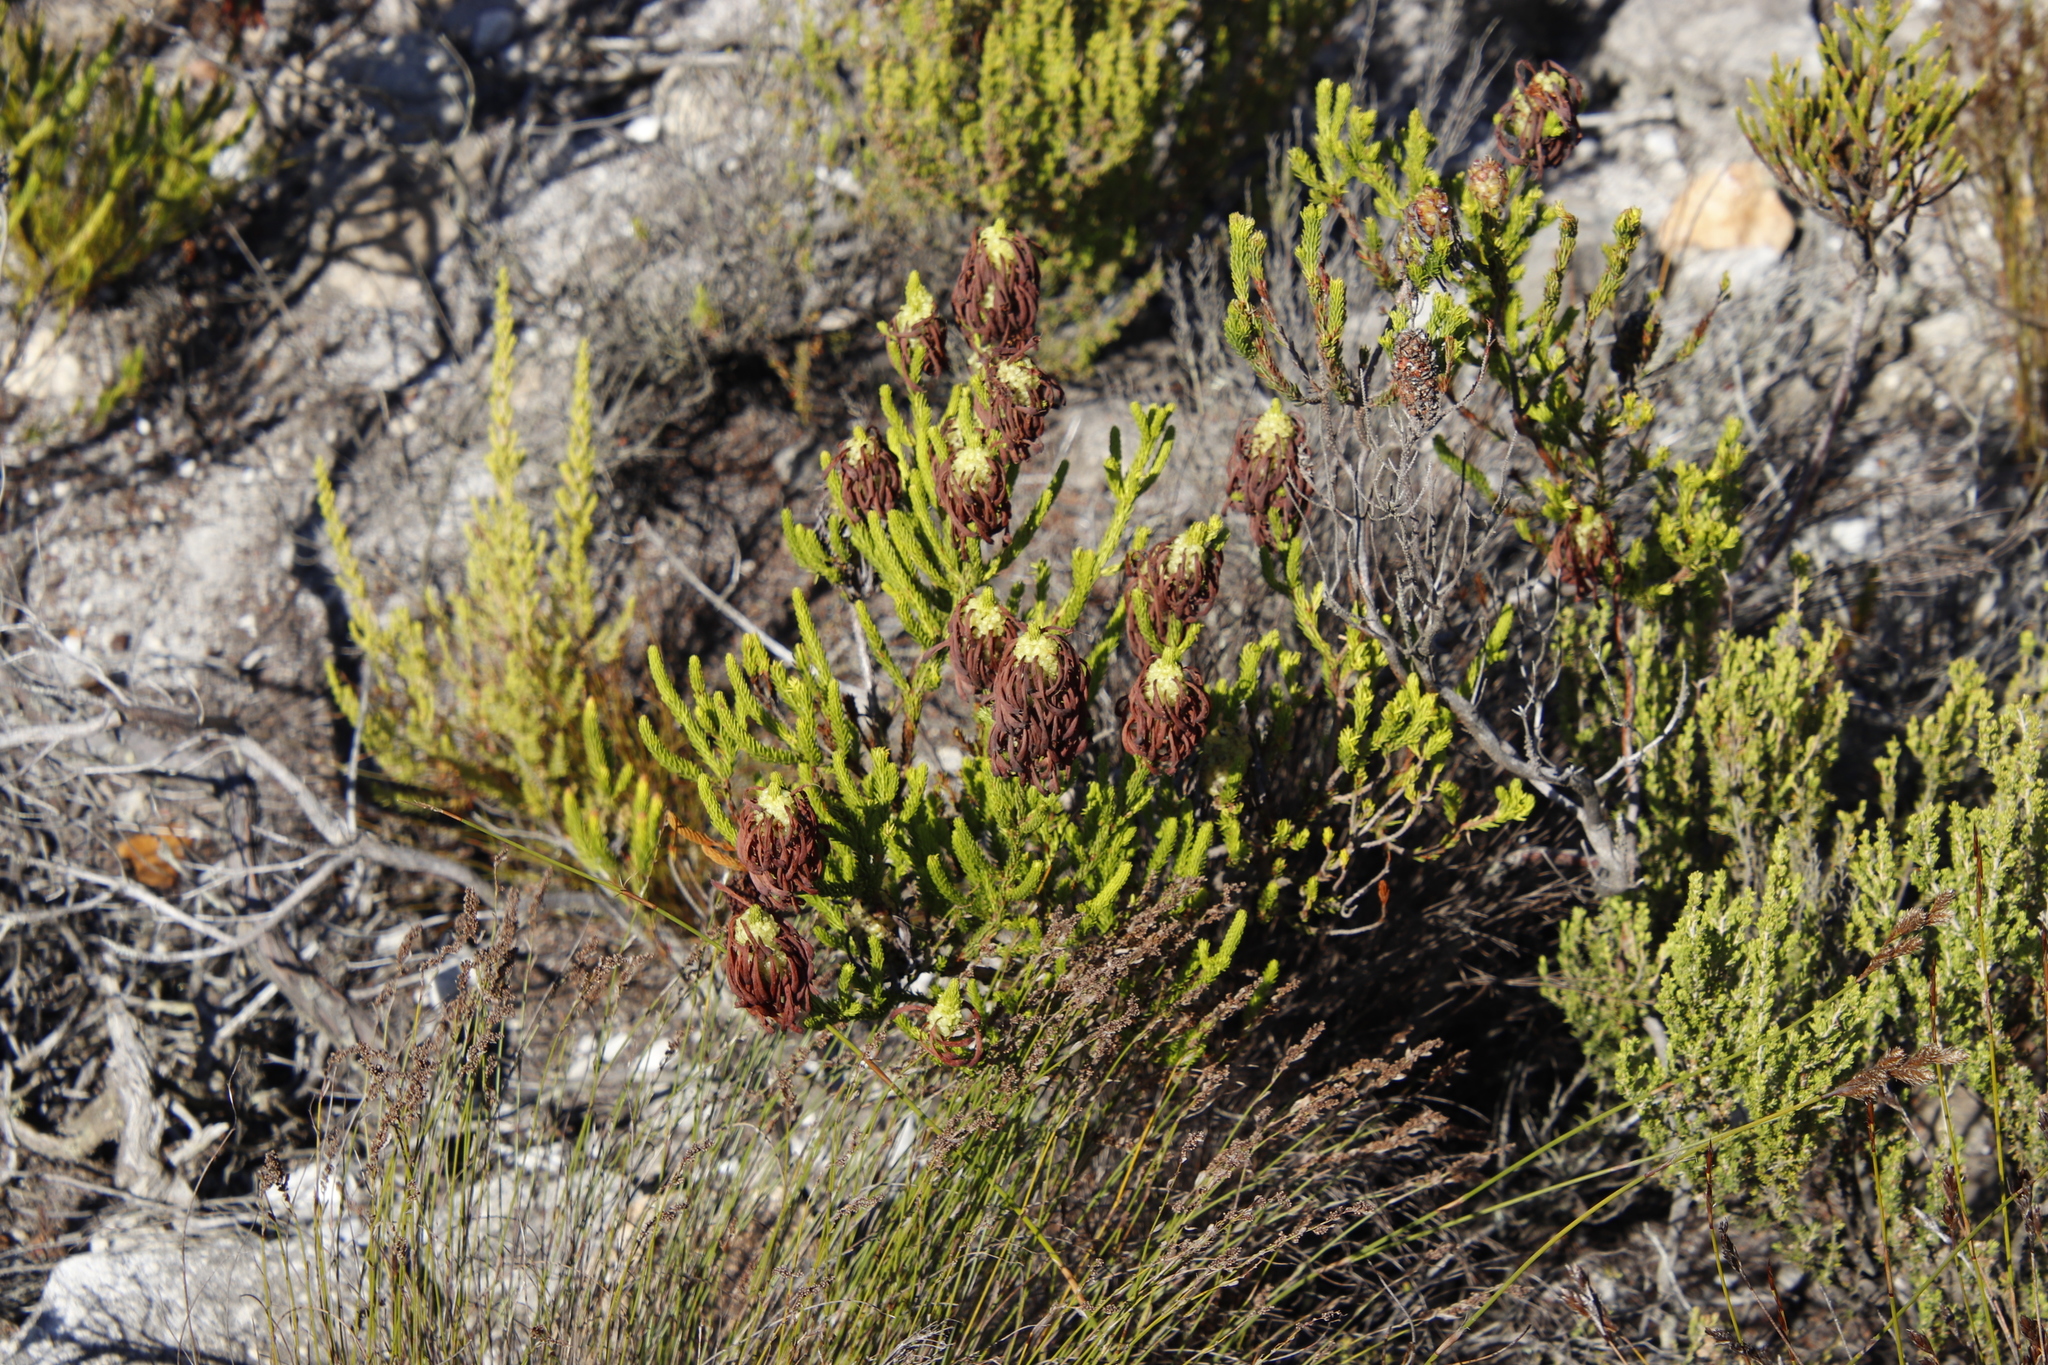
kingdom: Plantae
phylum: Tracheophyta
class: Magnoliopsida
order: Ericales
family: Ericaceae
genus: Erica
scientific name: Erica sessiliflora
